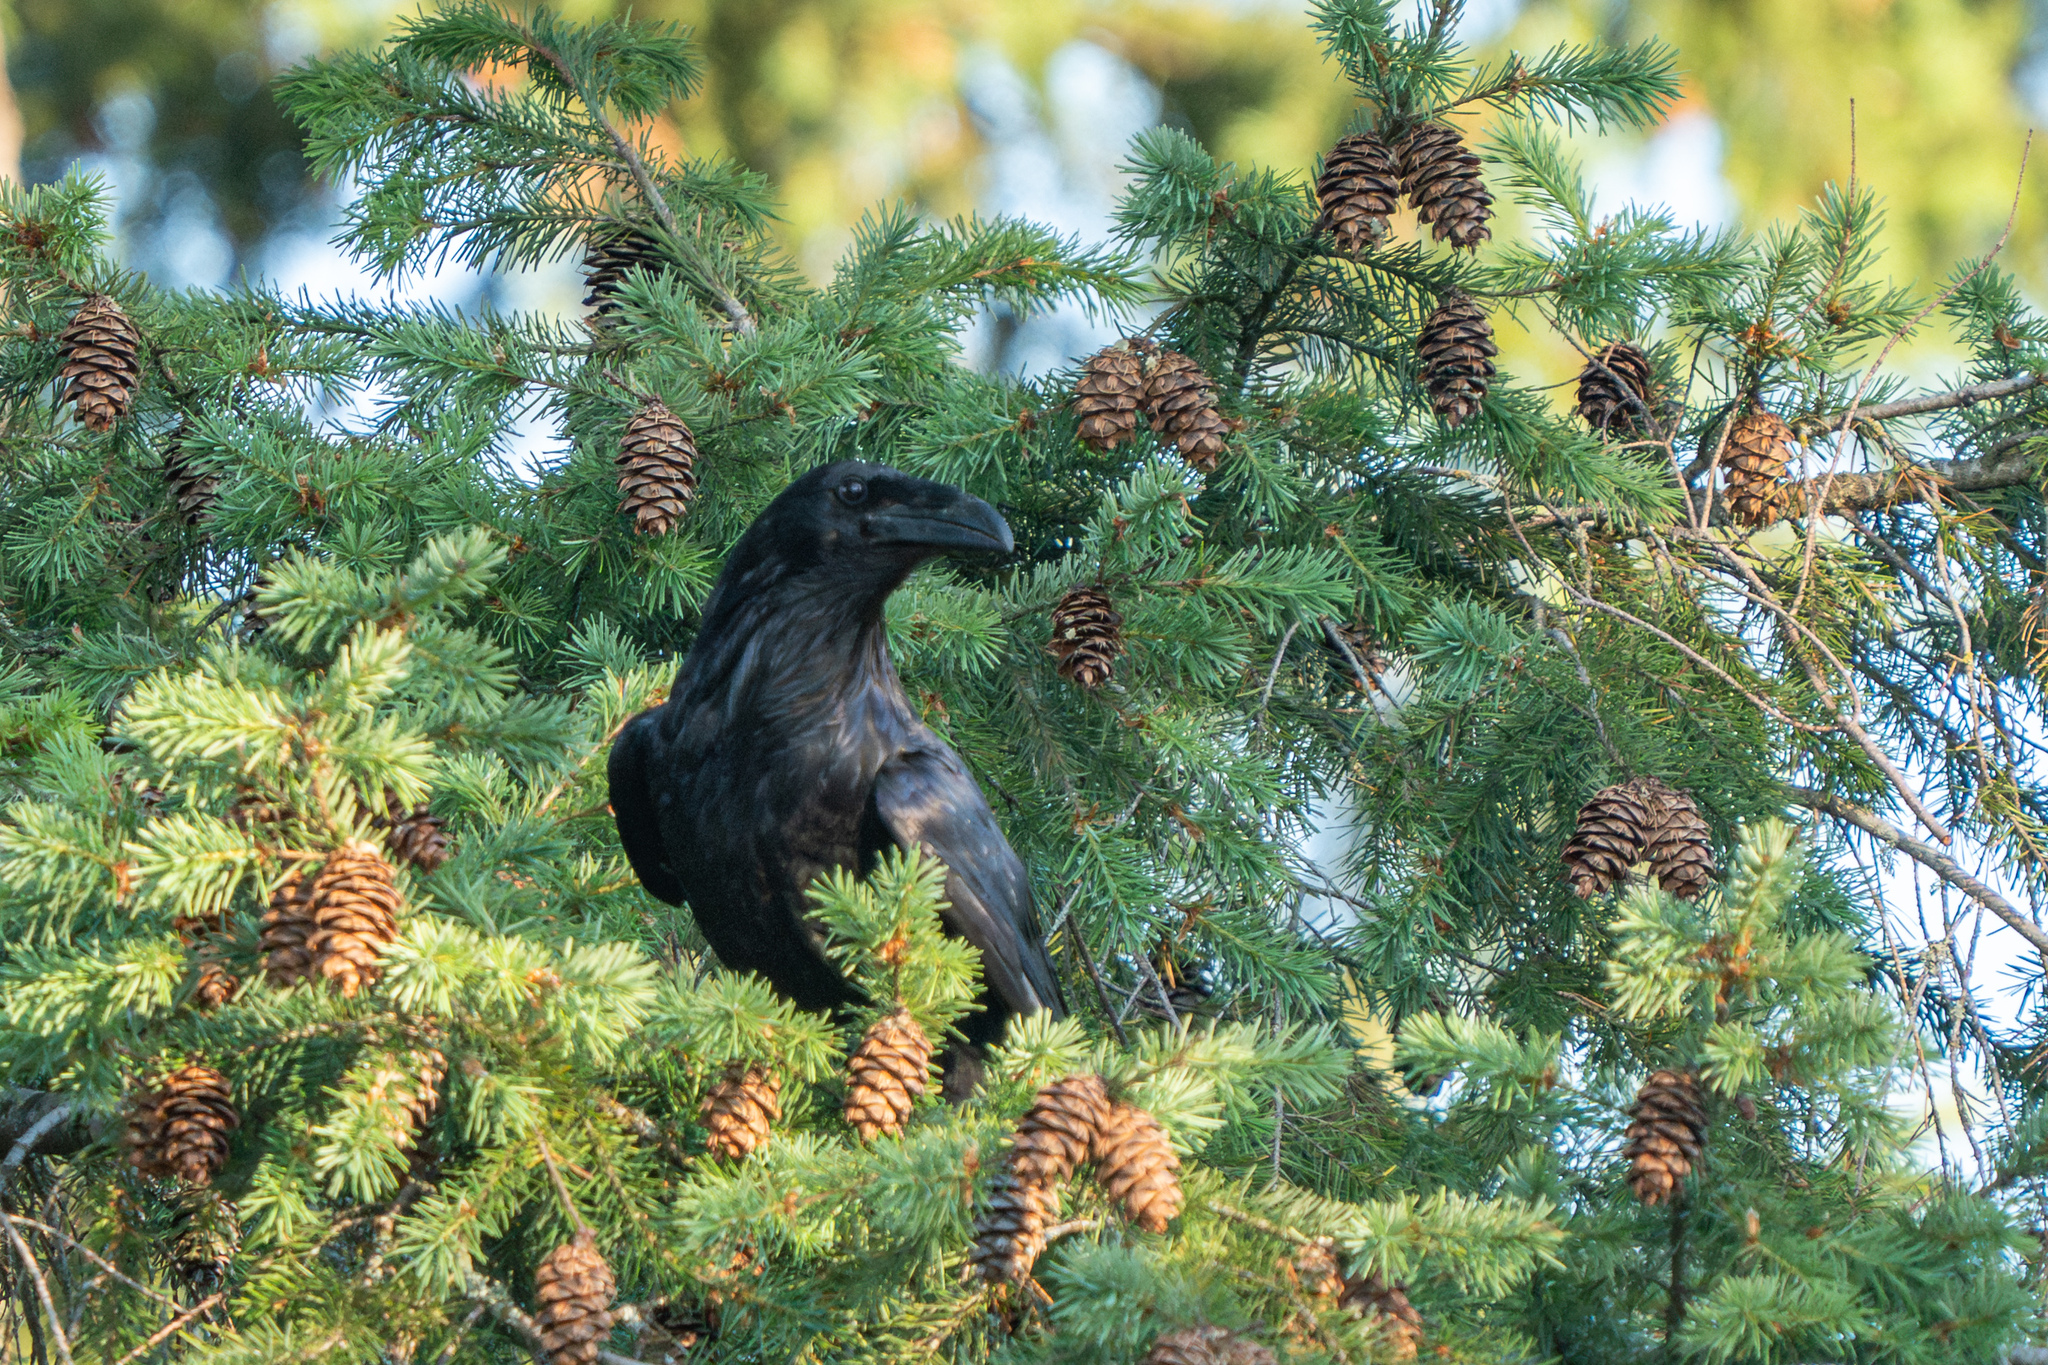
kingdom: Animalia
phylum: Chordata
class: Aves
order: Passeriformes
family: Corvidae
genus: Corvus
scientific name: Corvus corax
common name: Common raven
